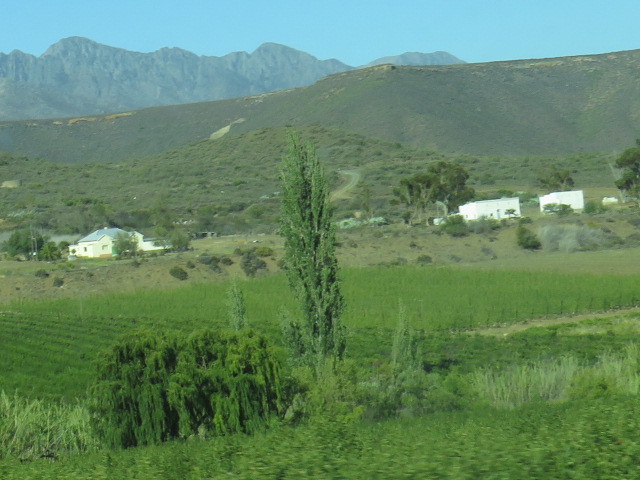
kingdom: Plantae
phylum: Tracheophyta
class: Magnoliopsida
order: Malpighiales
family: Salicaceae
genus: Populus
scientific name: Populus nigra
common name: Black poplar
